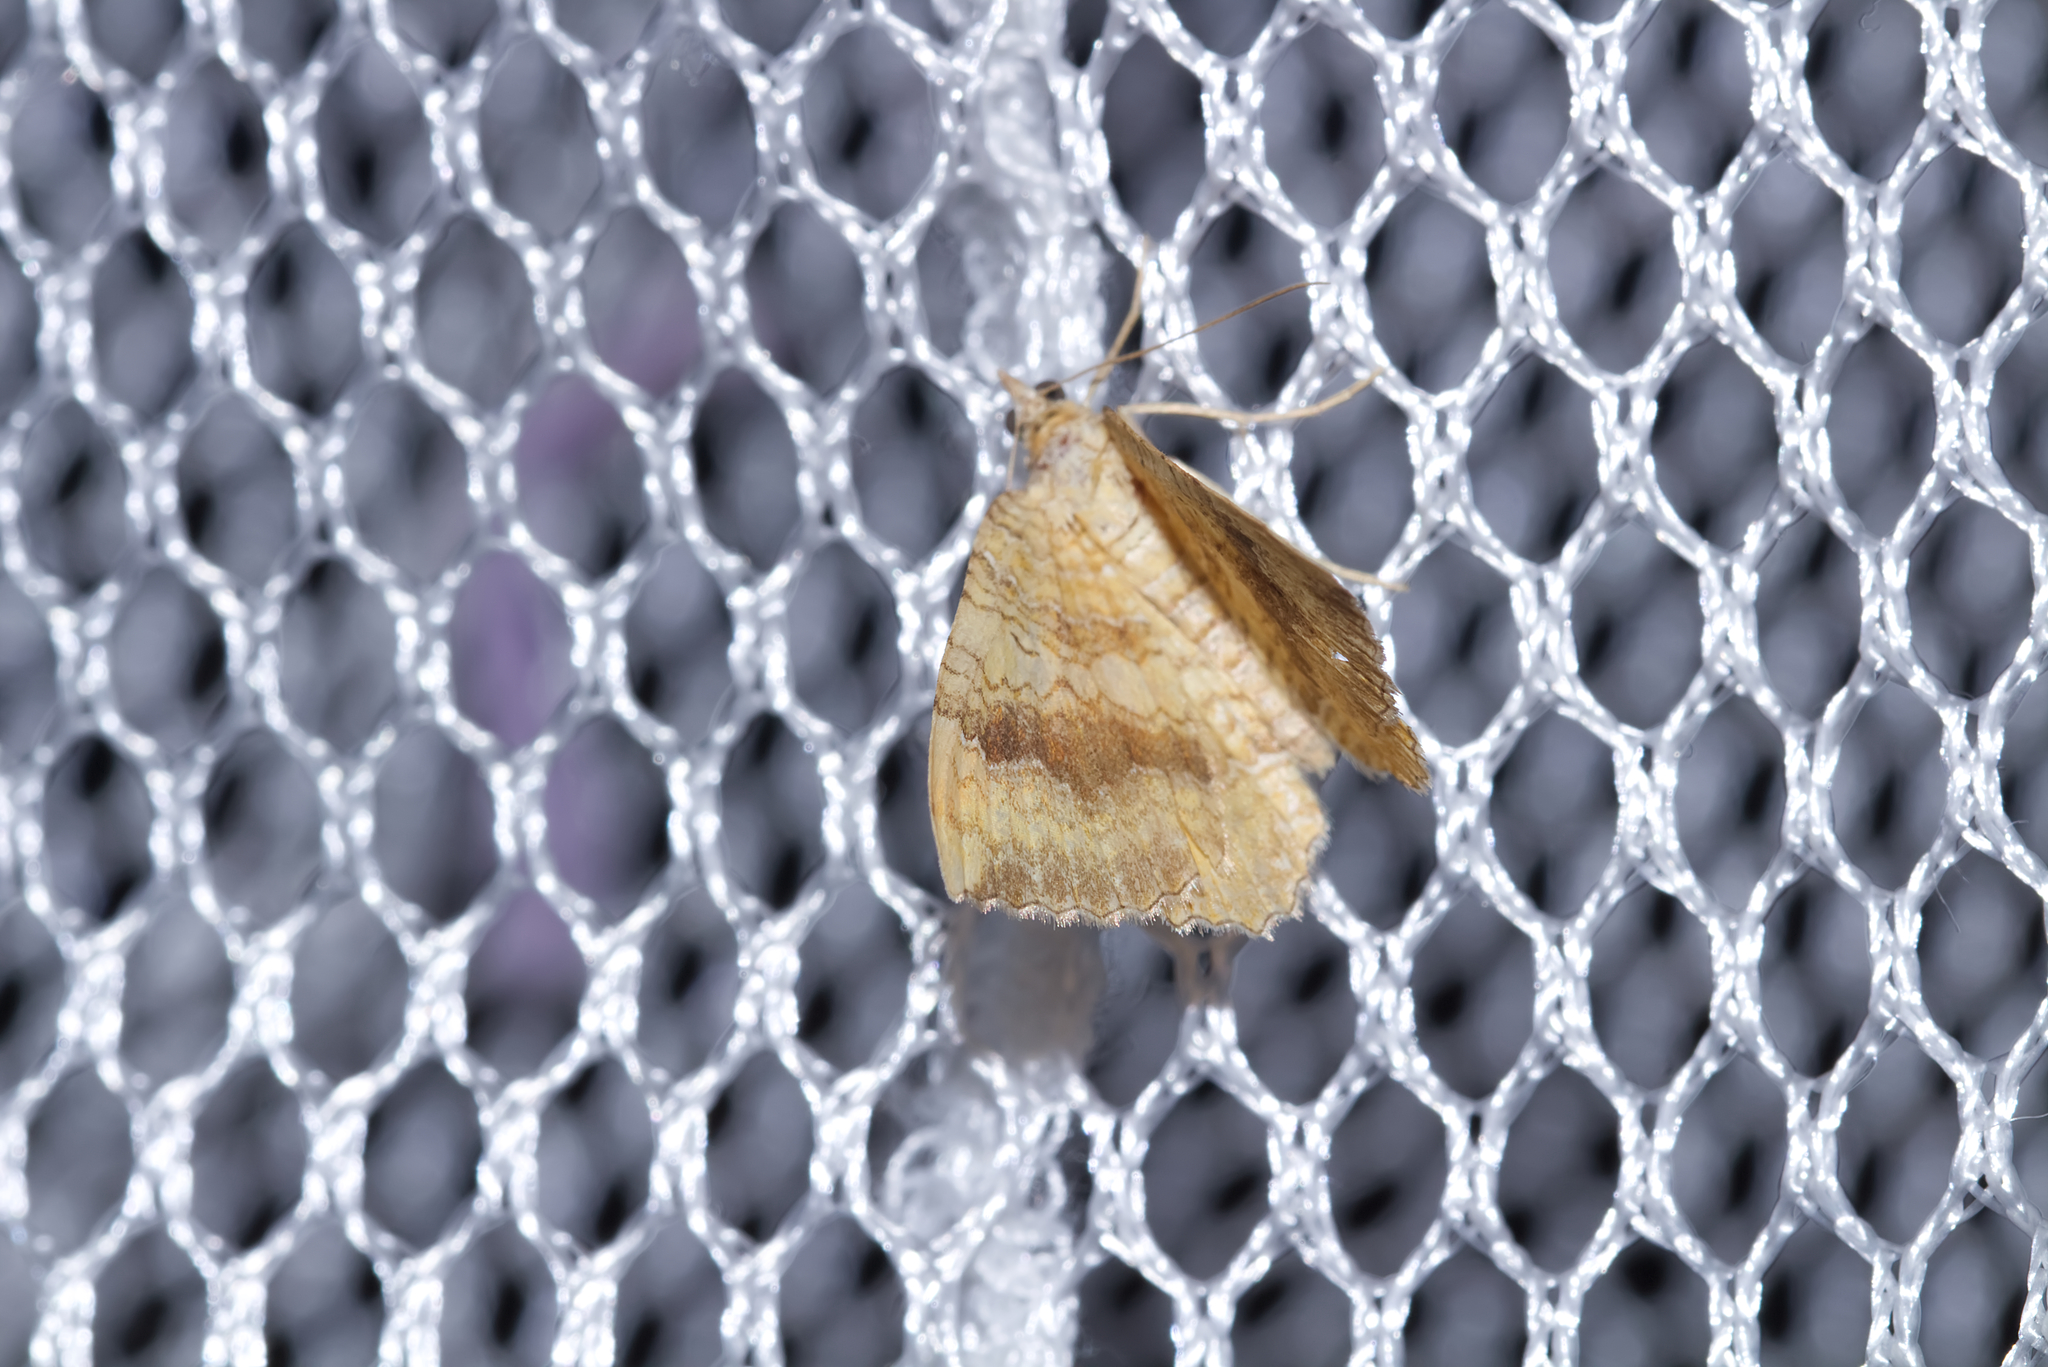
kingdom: Animalia
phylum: Arthropoda
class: Insecta
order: Lepidoptera
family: Geometridae
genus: Camptogramma
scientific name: Camptogramma bilineata
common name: Yellow shell
